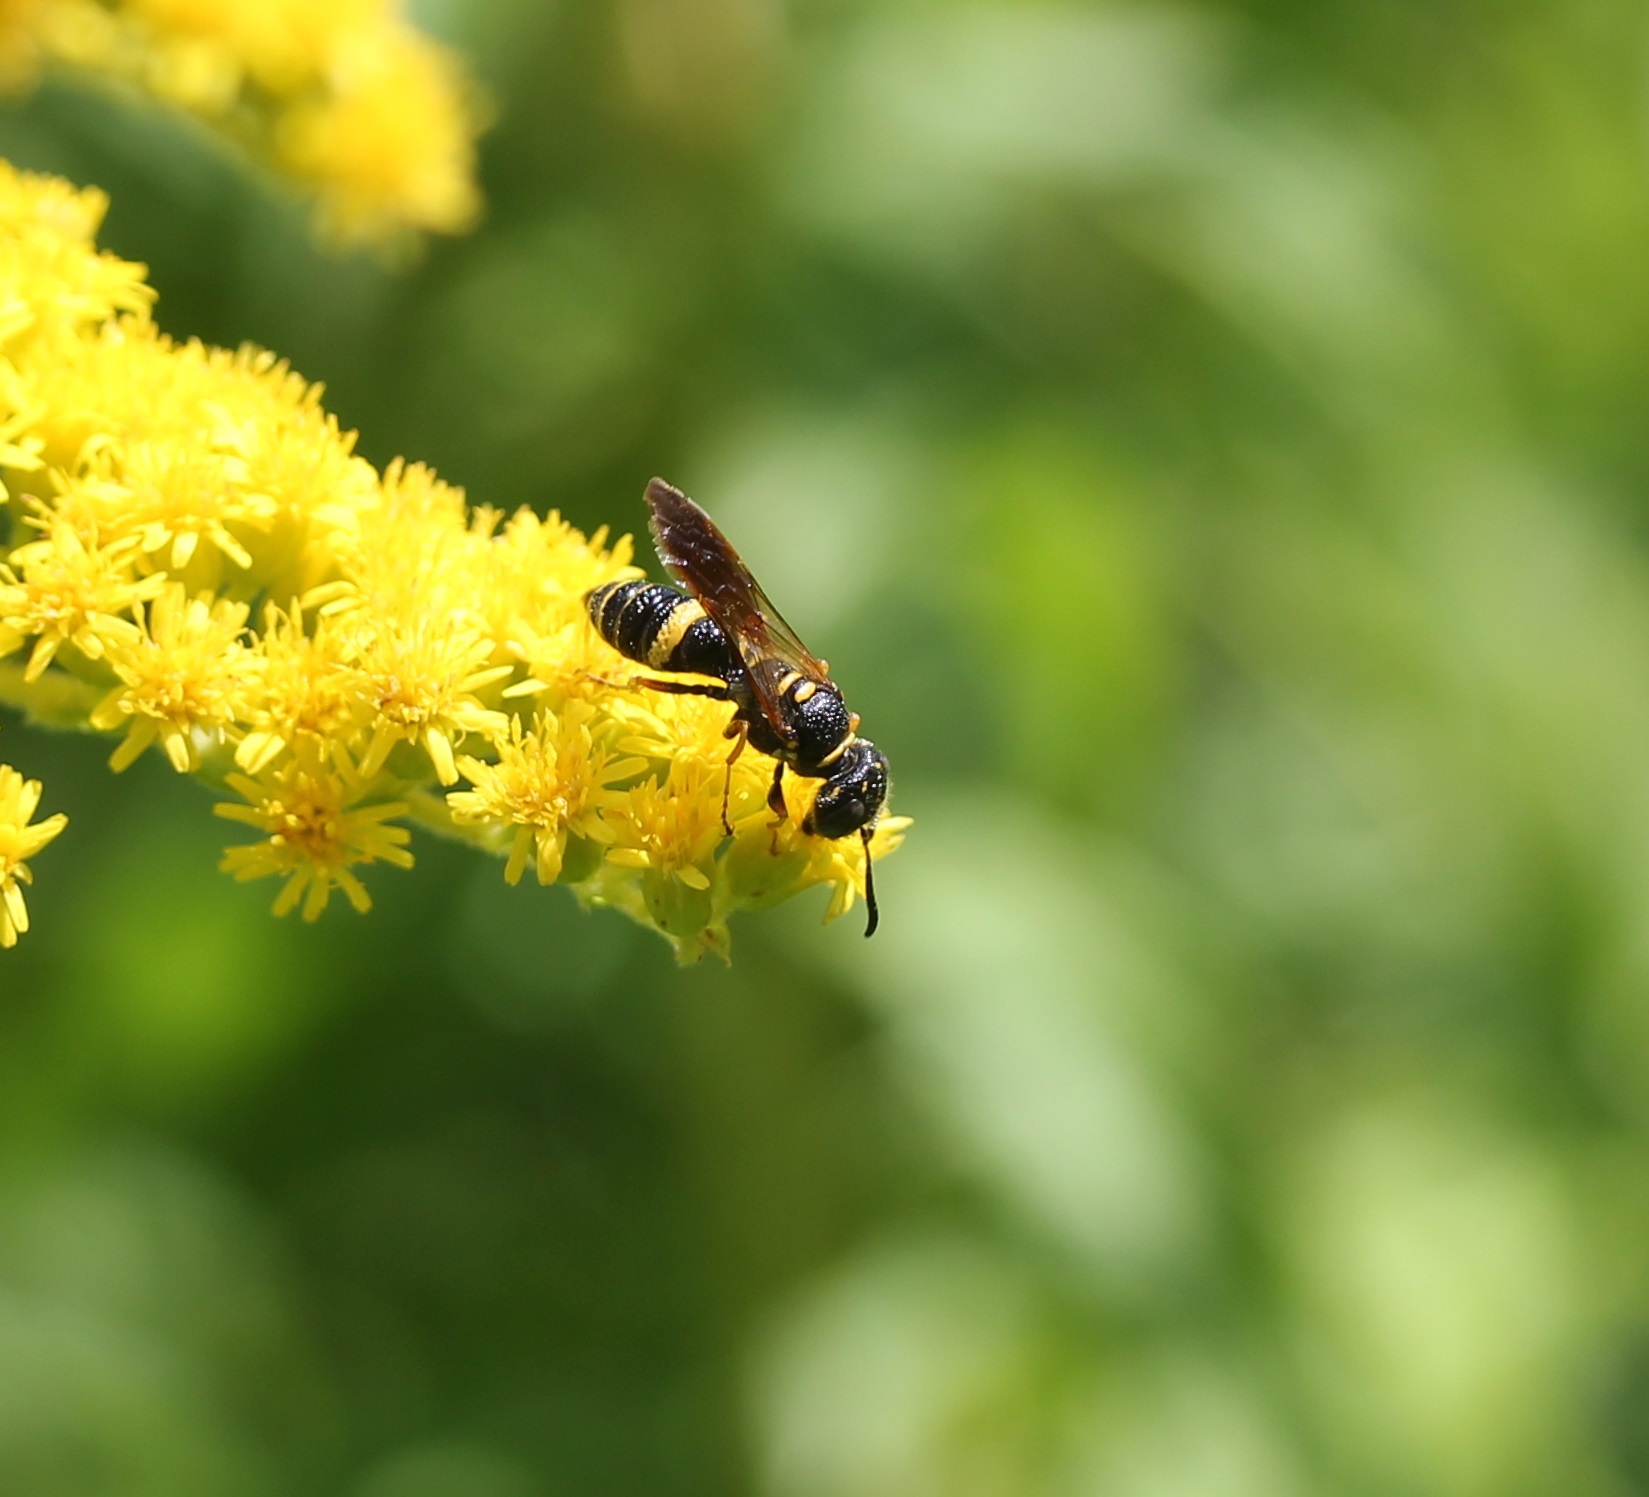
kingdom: Animalia
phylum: Arthropoda
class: Insecta
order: Hymenoptera
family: Crabronidae
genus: Philanthus
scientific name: Philanthus gibbosus
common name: Humped beewolf
